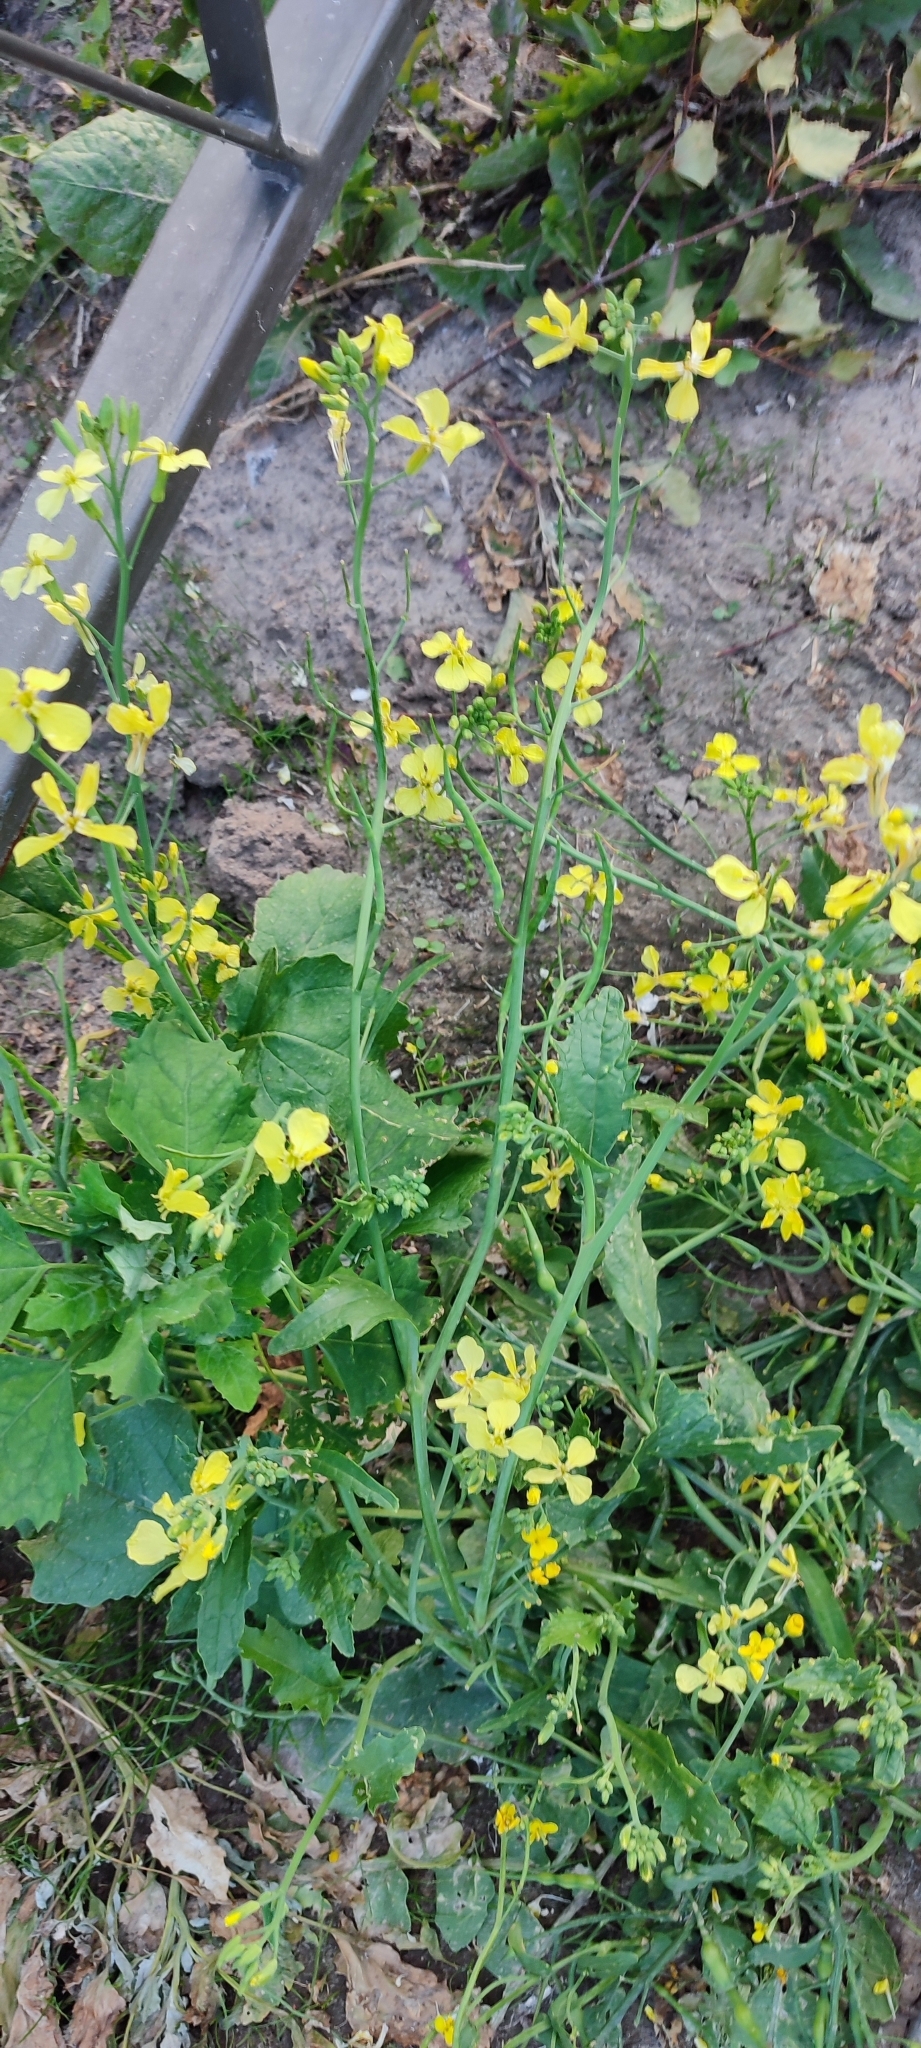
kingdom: Plantae
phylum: Tracheophyta
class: Magnoliopsida
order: Brassicales
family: Brassicaceae
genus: Raphanus
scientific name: Raphanus raphanistrum
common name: Wild radish
